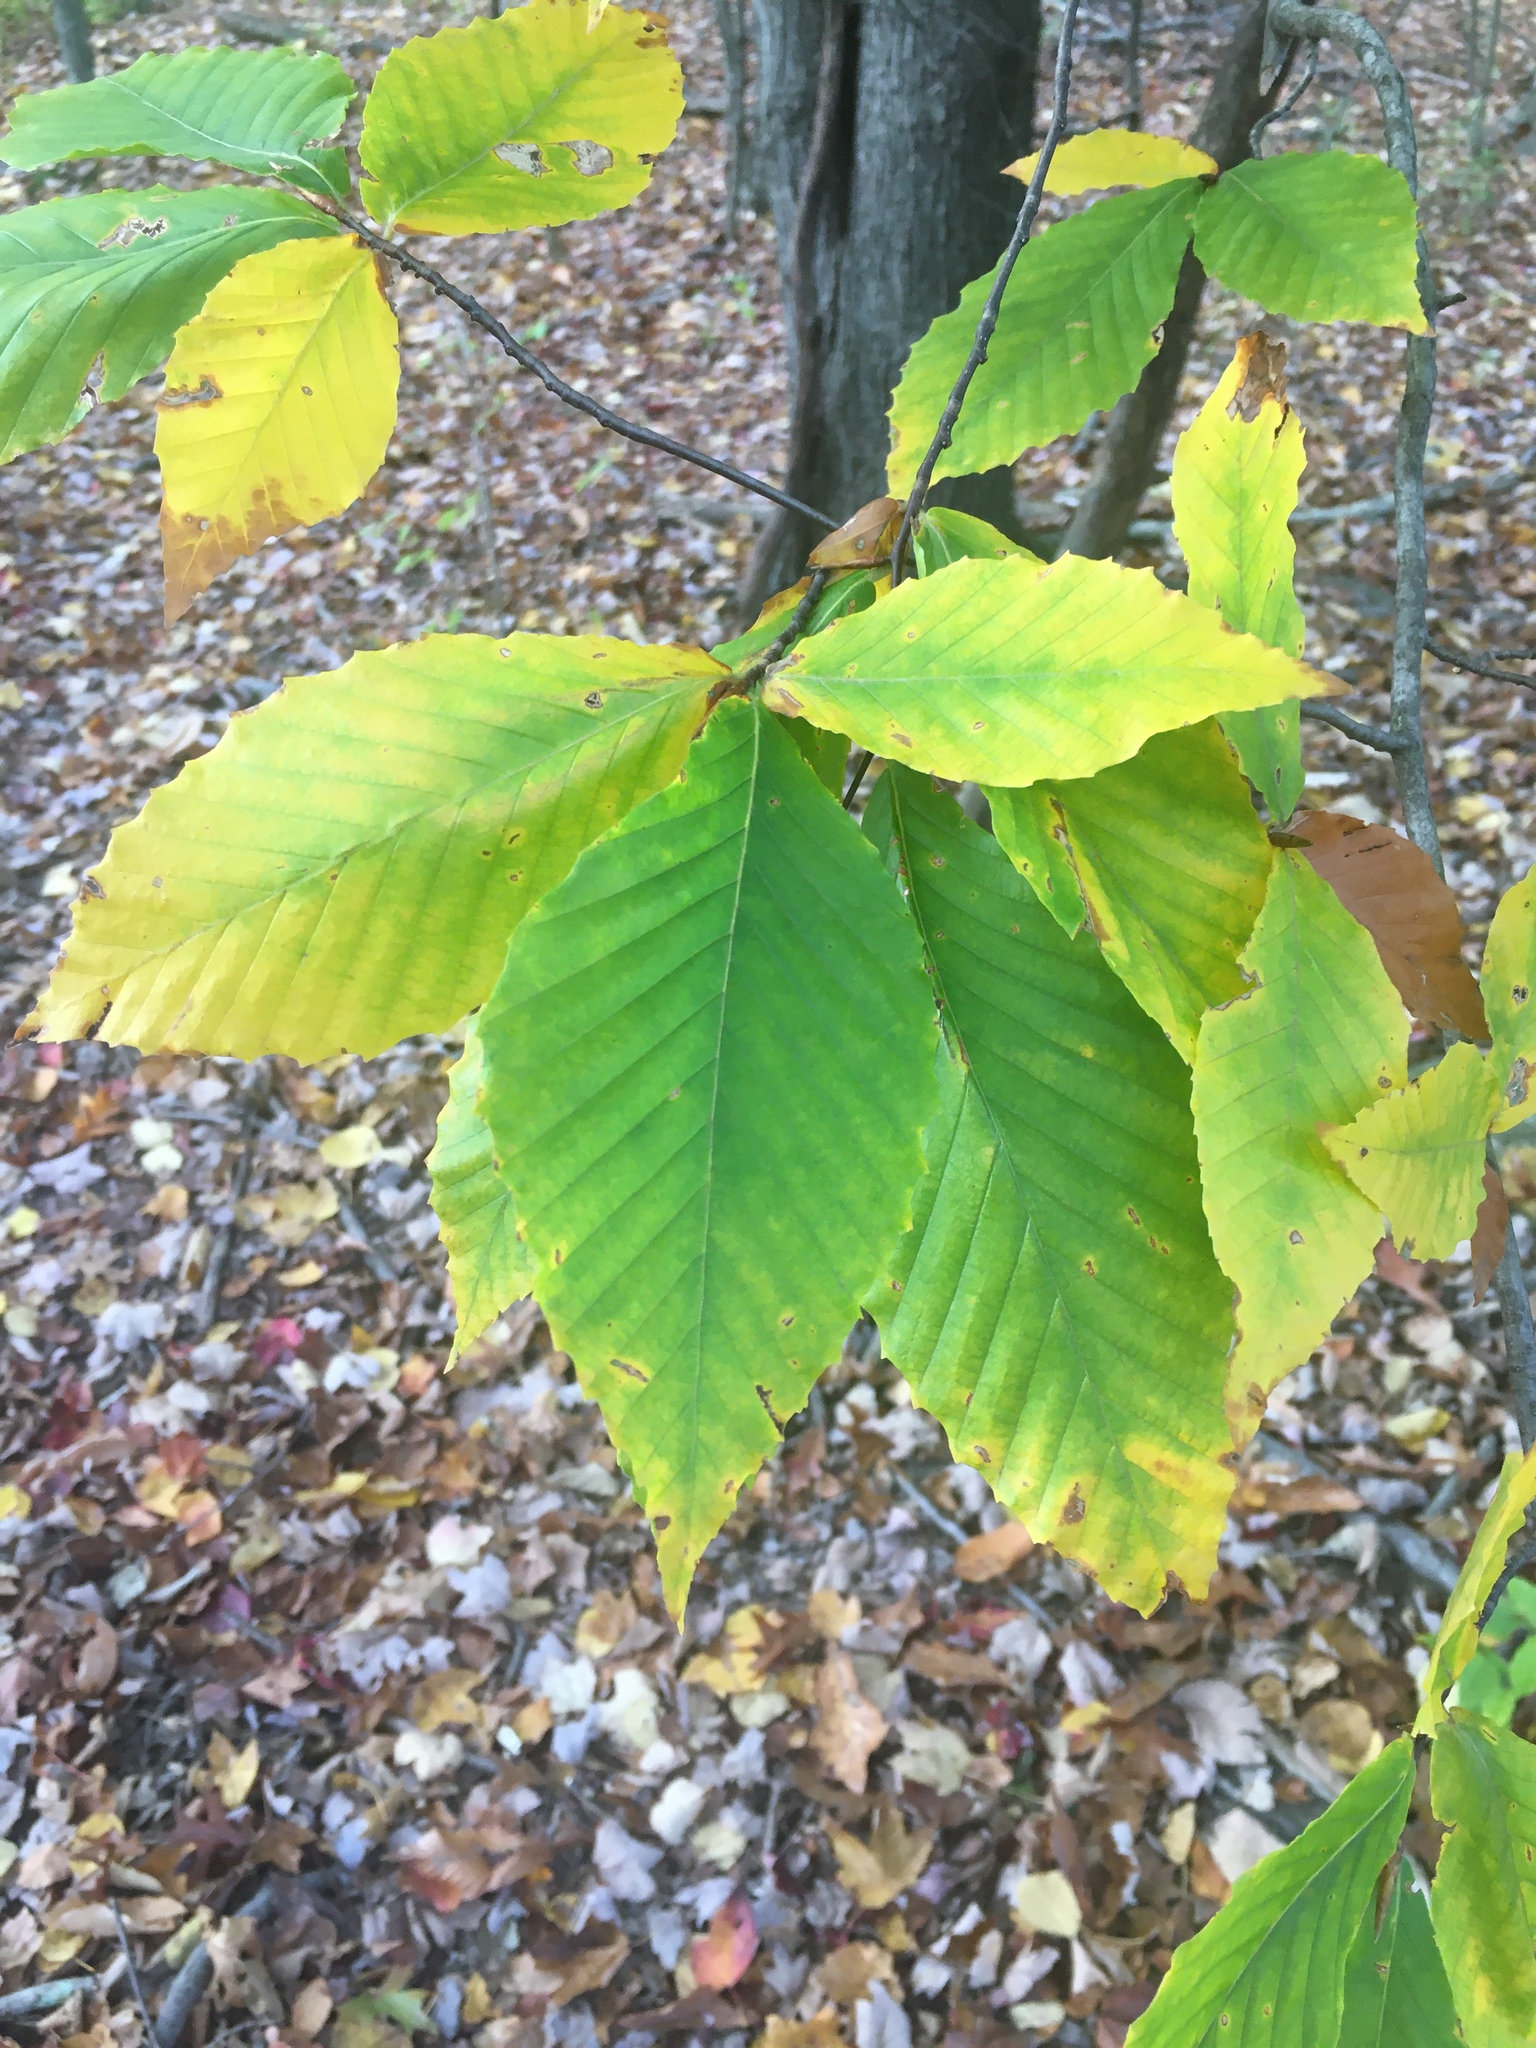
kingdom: Plantae
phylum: Tracheophyta
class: Magnoliopsida
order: Fagales
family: Fagaceae
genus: Fagus
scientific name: Fagus grandifolia
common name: American beech
